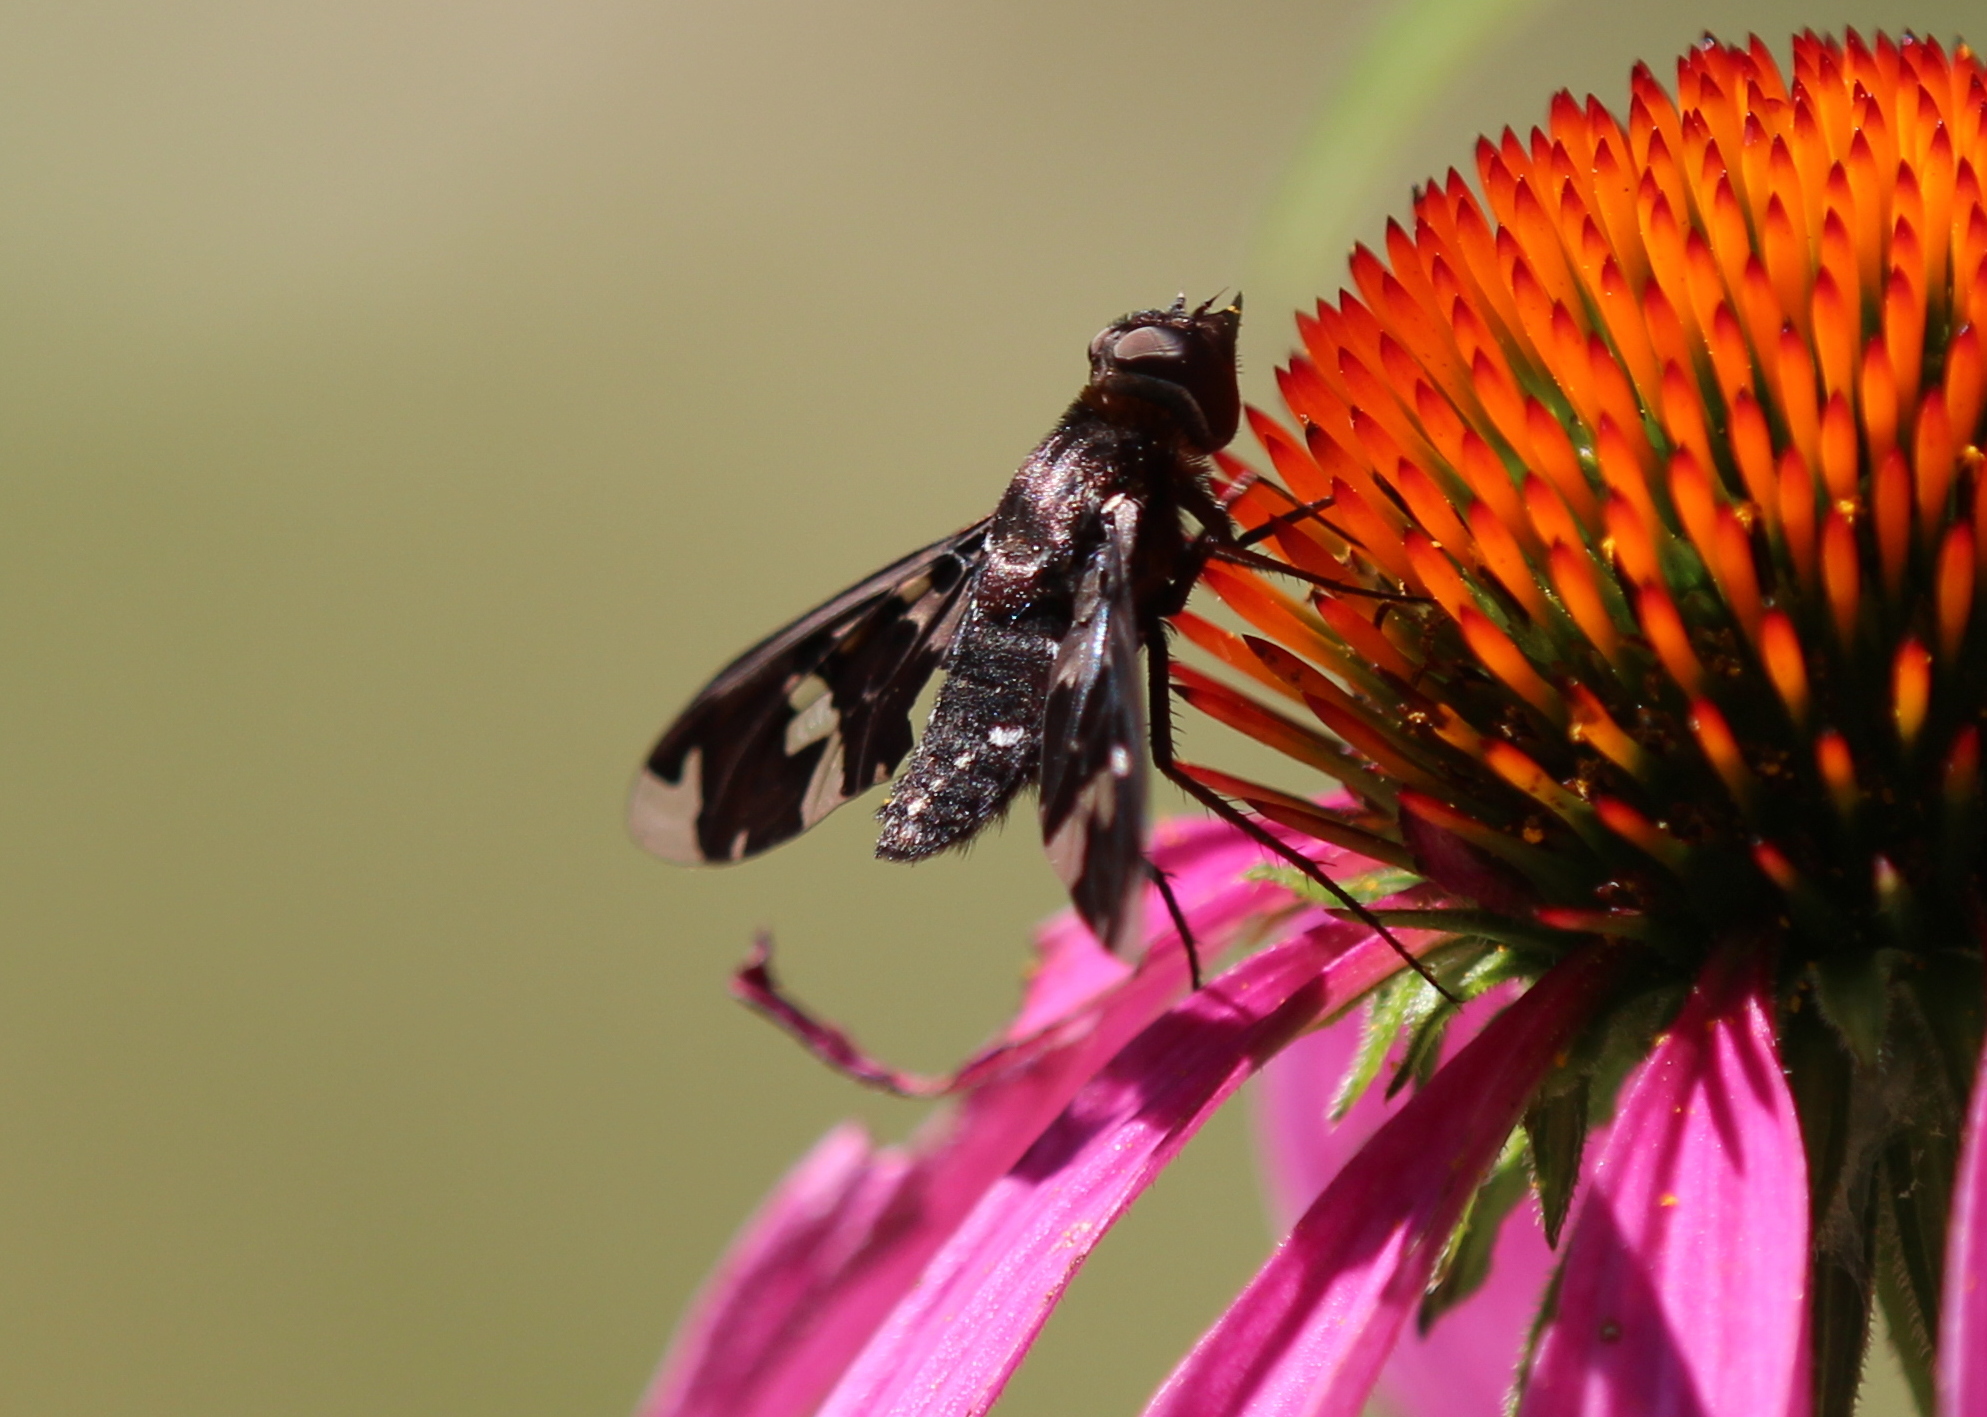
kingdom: Animalia
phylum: Arthropoda
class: Insecta
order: Diptera
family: Bombyliidae
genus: Exoprosopa
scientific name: Exoprosopa decora
